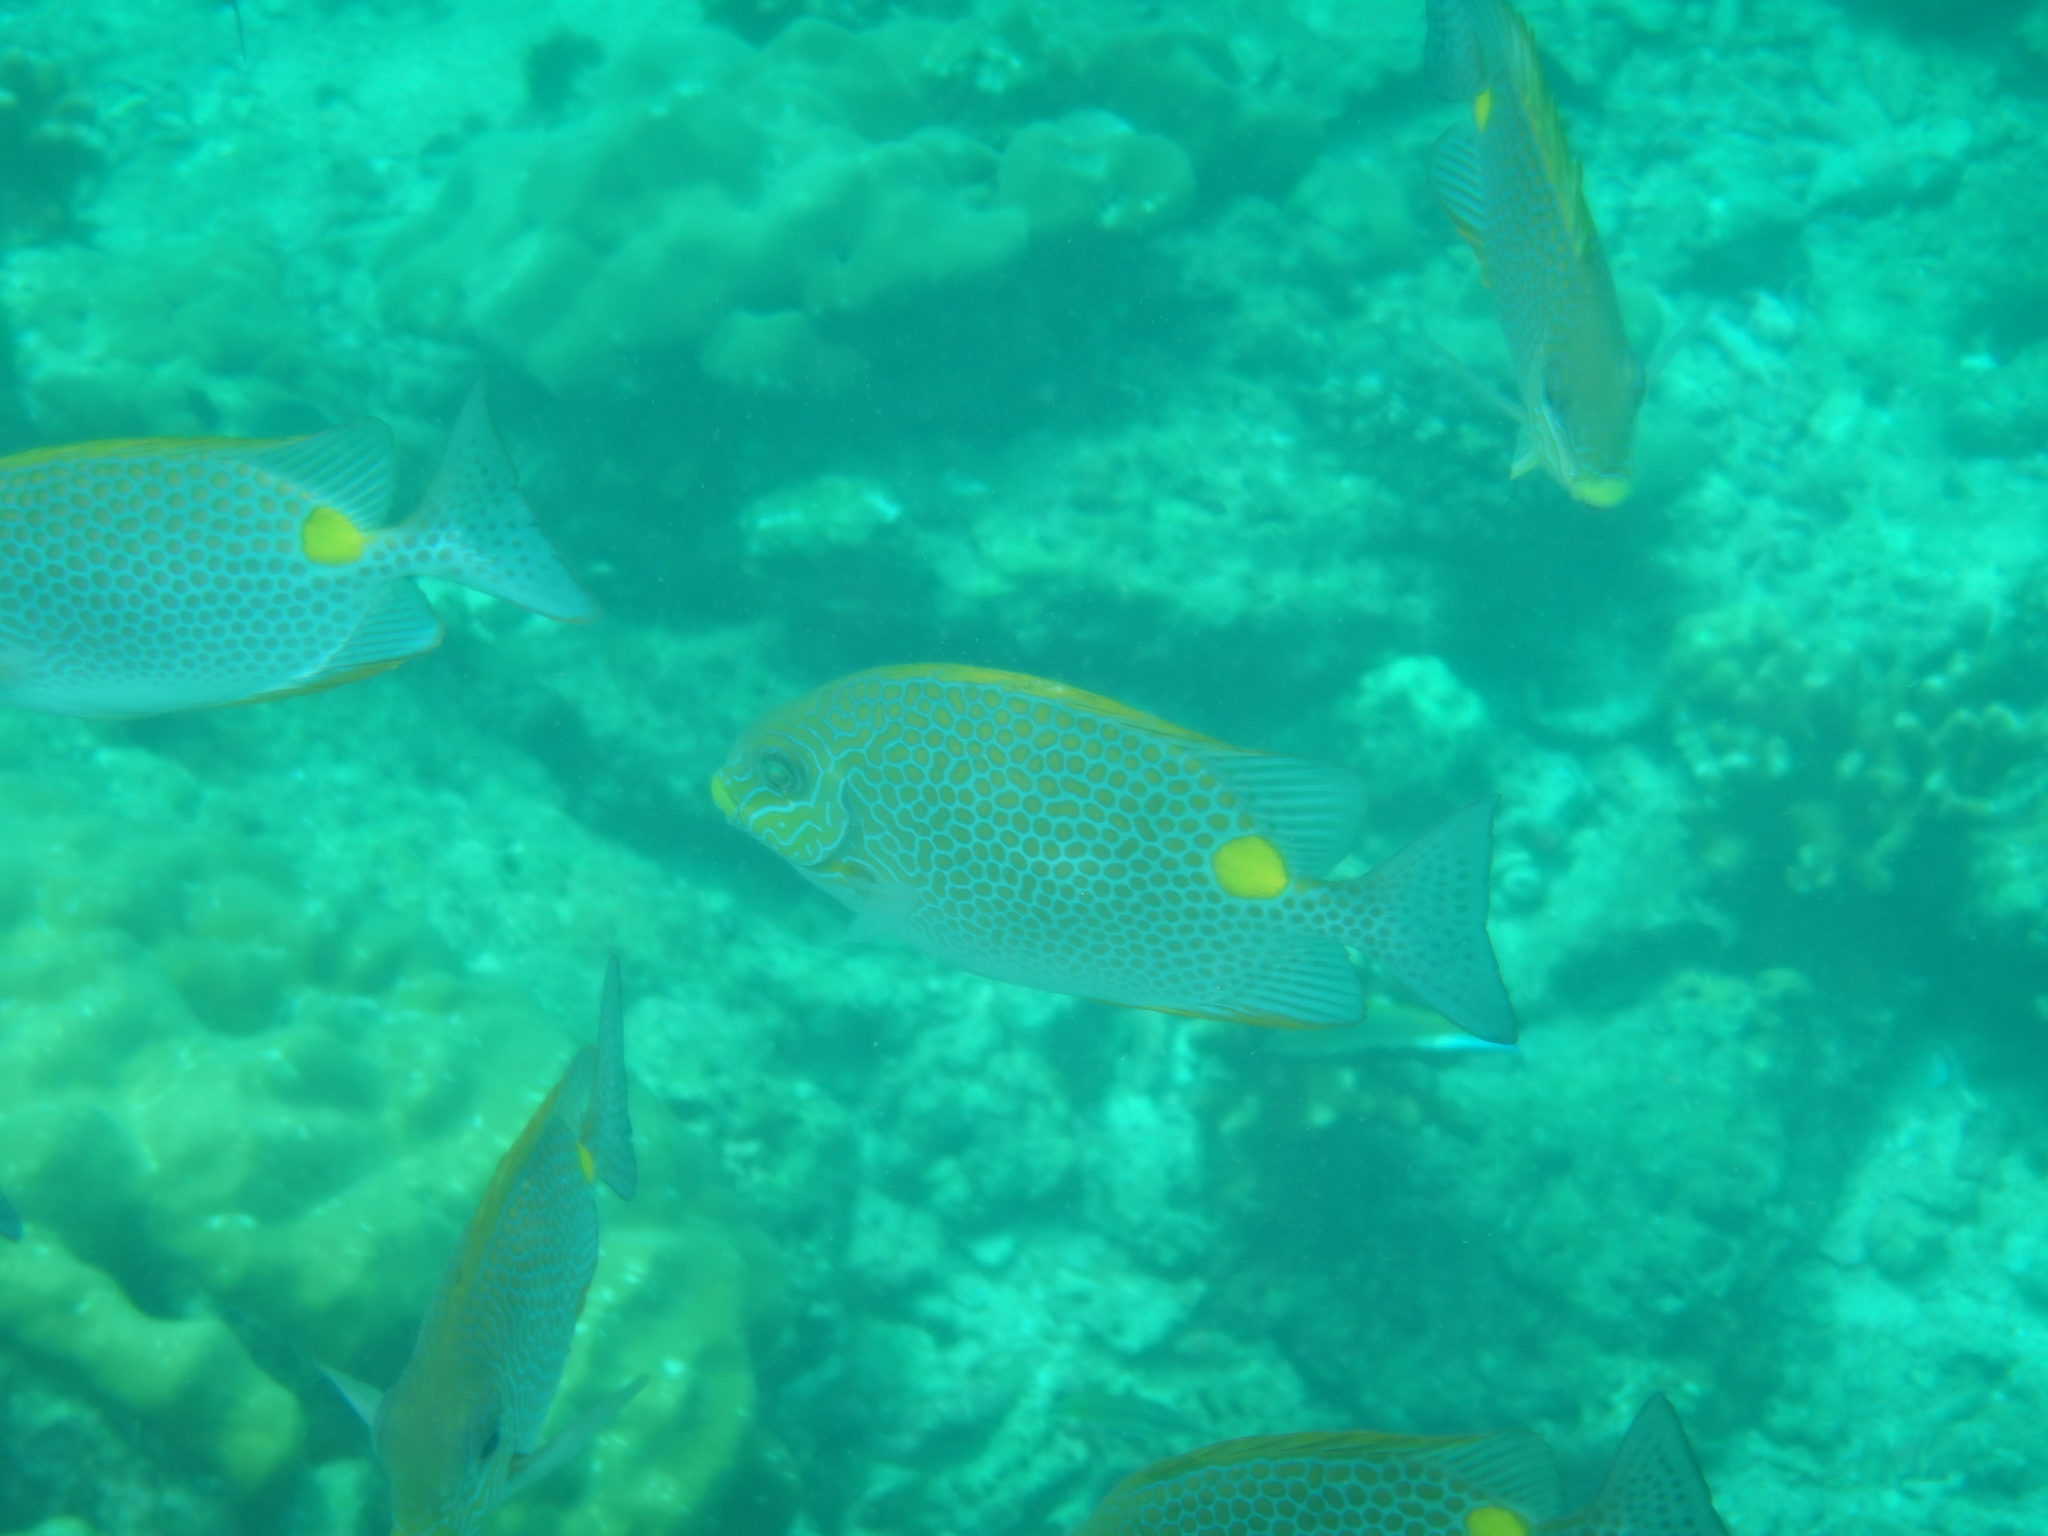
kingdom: Animalia
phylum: Chordata
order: Perciformes
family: Siganidae
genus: Siganus
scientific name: Siganus guttatus
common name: Golden rabbitfish
